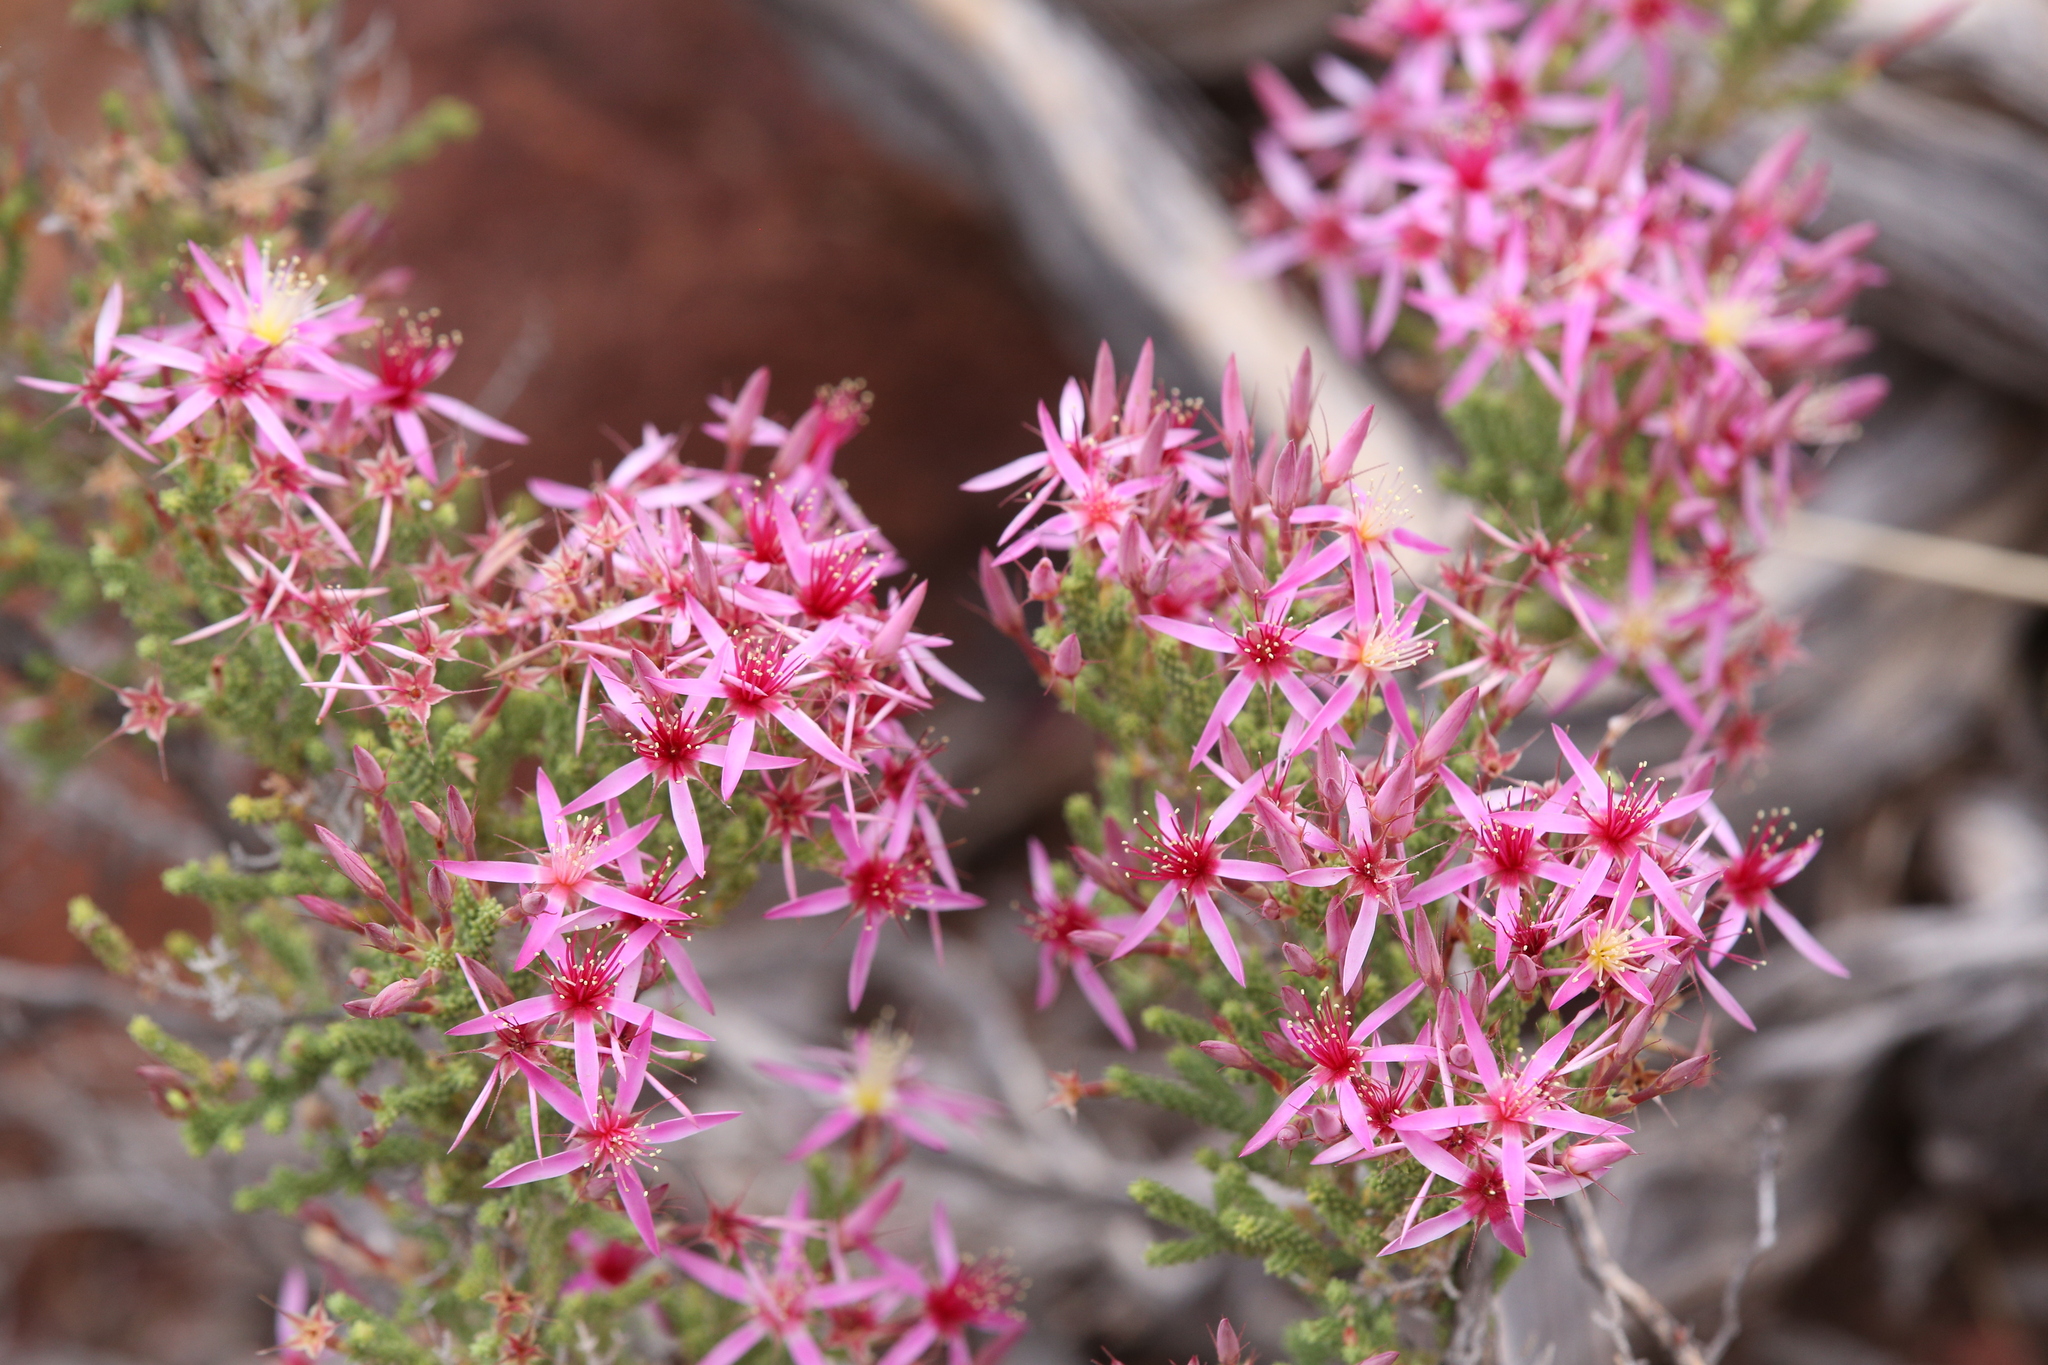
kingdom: Plantae
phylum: Tracheophyta
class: Magnoliopsida
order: Myrtales
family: Myrtaceae
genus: Calytrix
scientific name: Calytrix exstipulata
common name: Kimberley heather
